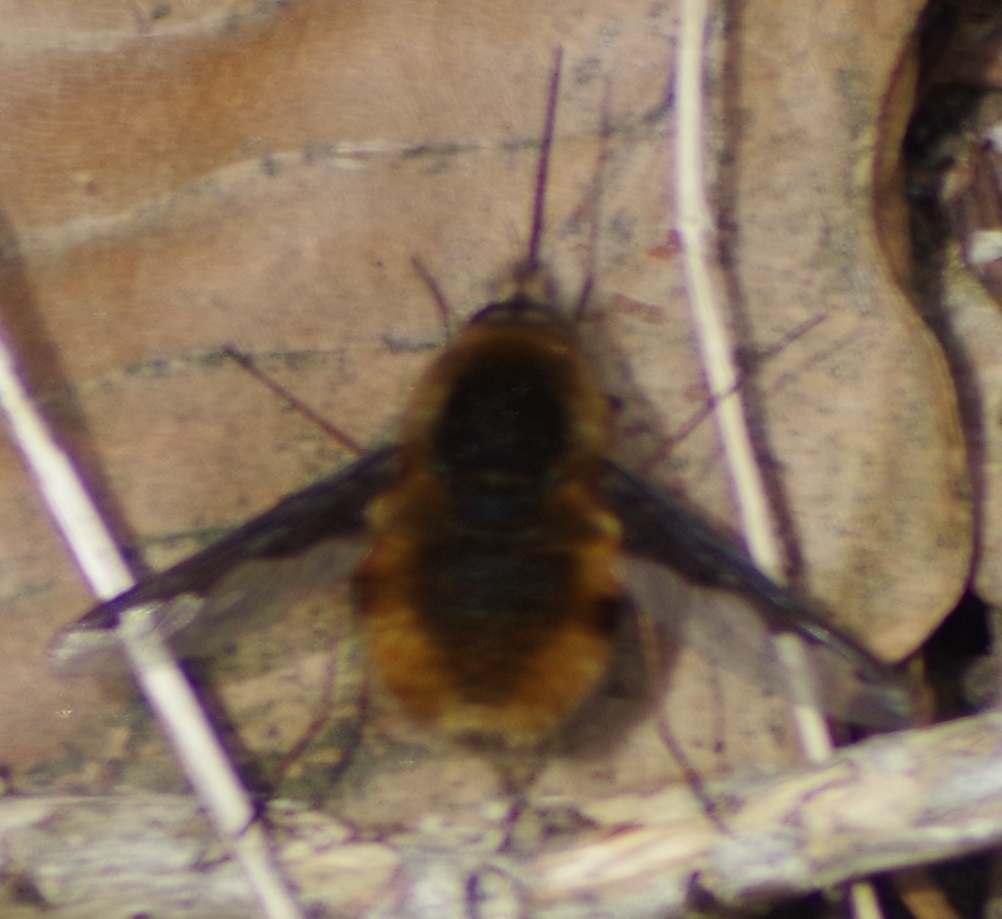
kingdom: Animalia
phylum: Arthropoda
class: Insecta
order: Diptera
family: Bombyliidae
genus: Bombylius
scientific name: Bombylius major
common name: Bee fly
